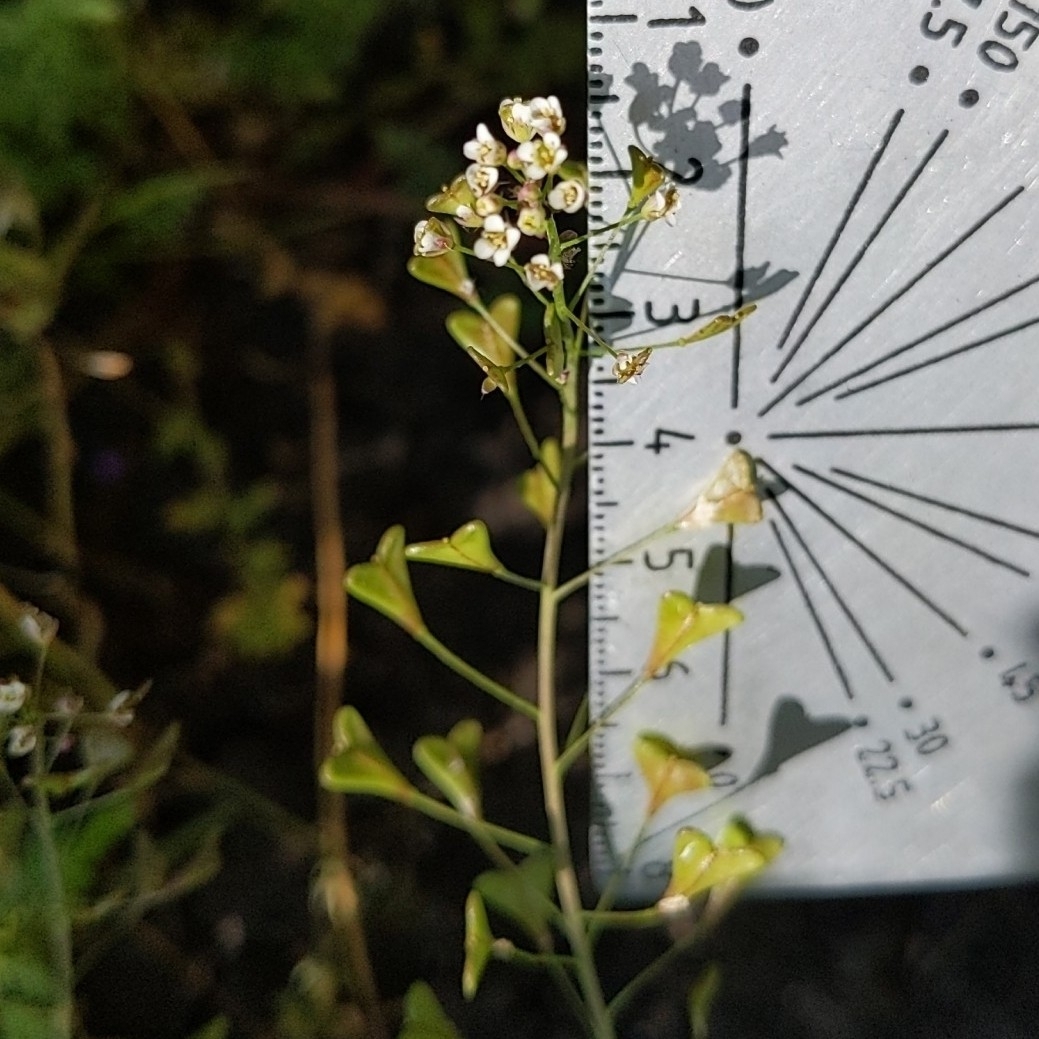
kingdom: Plantae
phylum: Tracheophyta
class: Magnoliopsida
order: Brassicales
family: Brassicaceae
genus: Capsella
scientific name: Capsella bursa-pastoris
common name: Shepherd's purse
